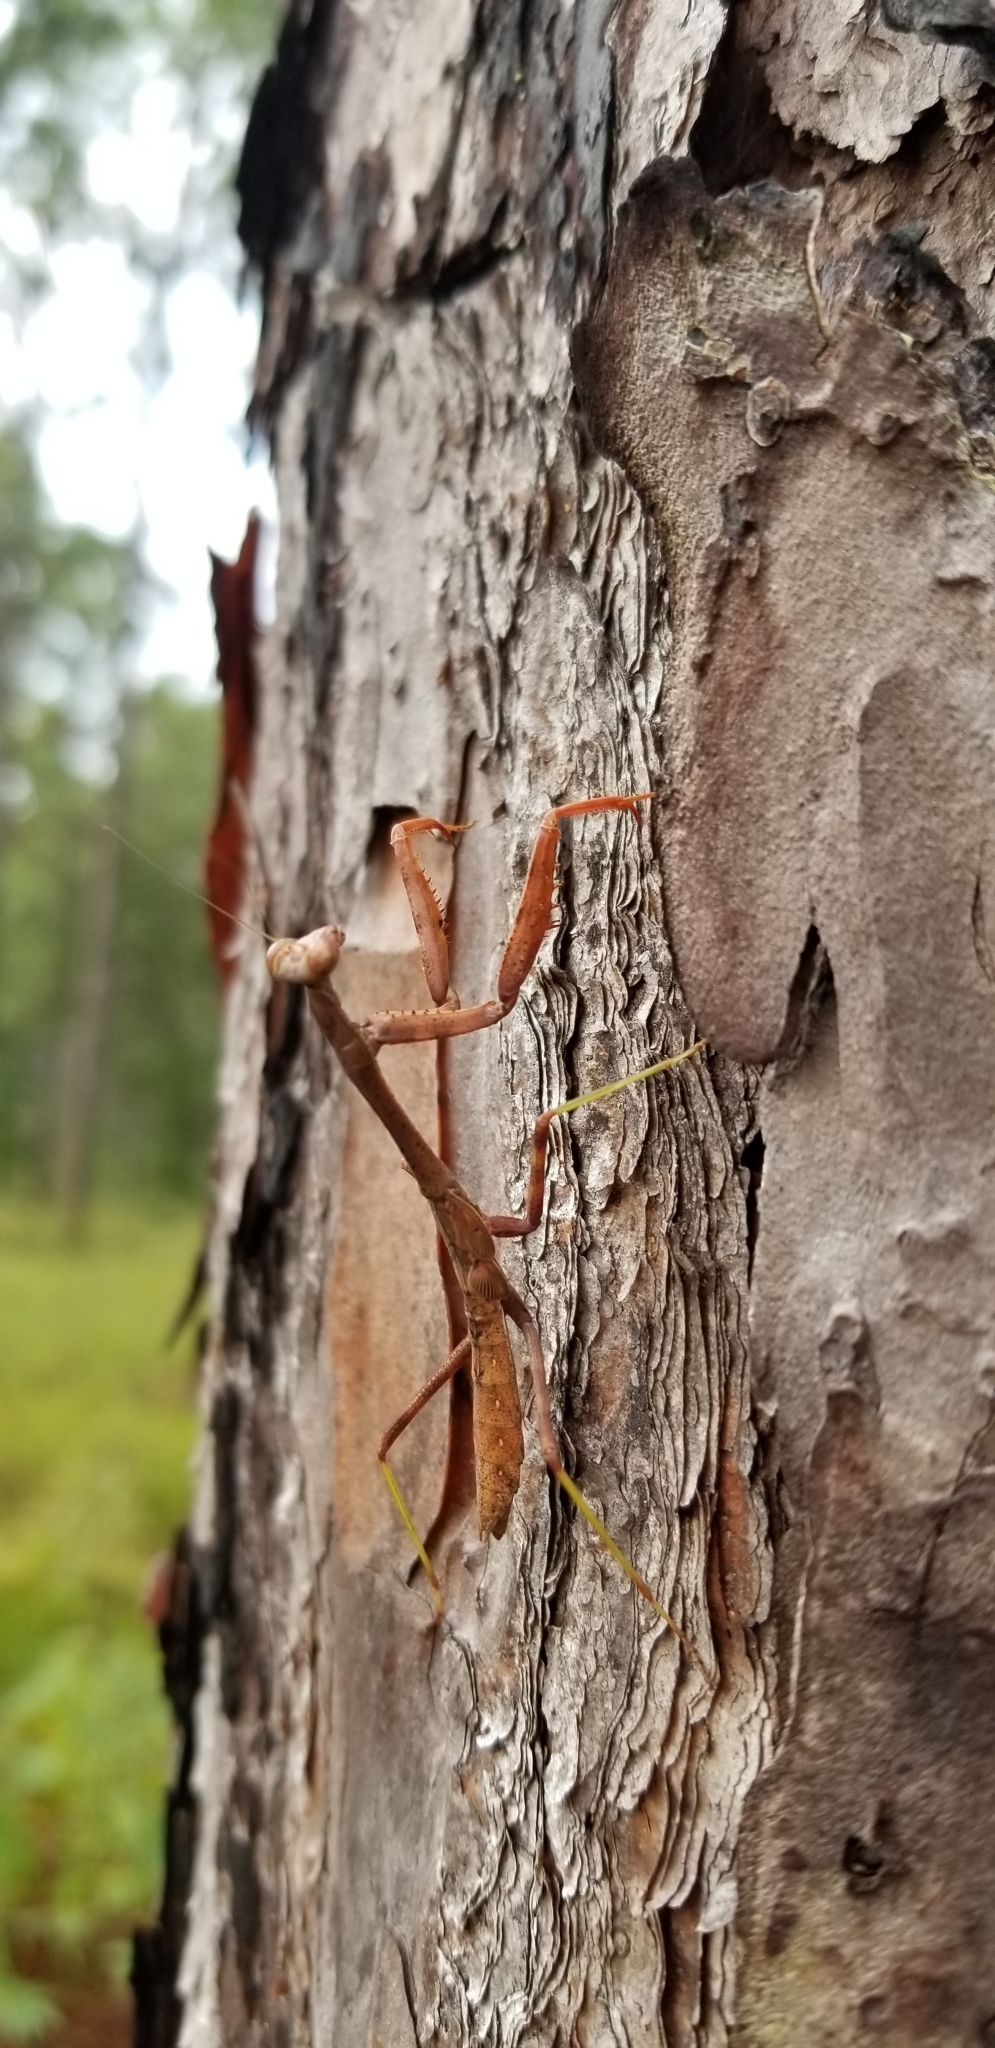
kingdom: Animalia
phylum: Arthropoda
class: Insecta
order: Mantodea
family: Mantidae
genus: Stagmomantis
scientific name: Stagmomantis carolina
